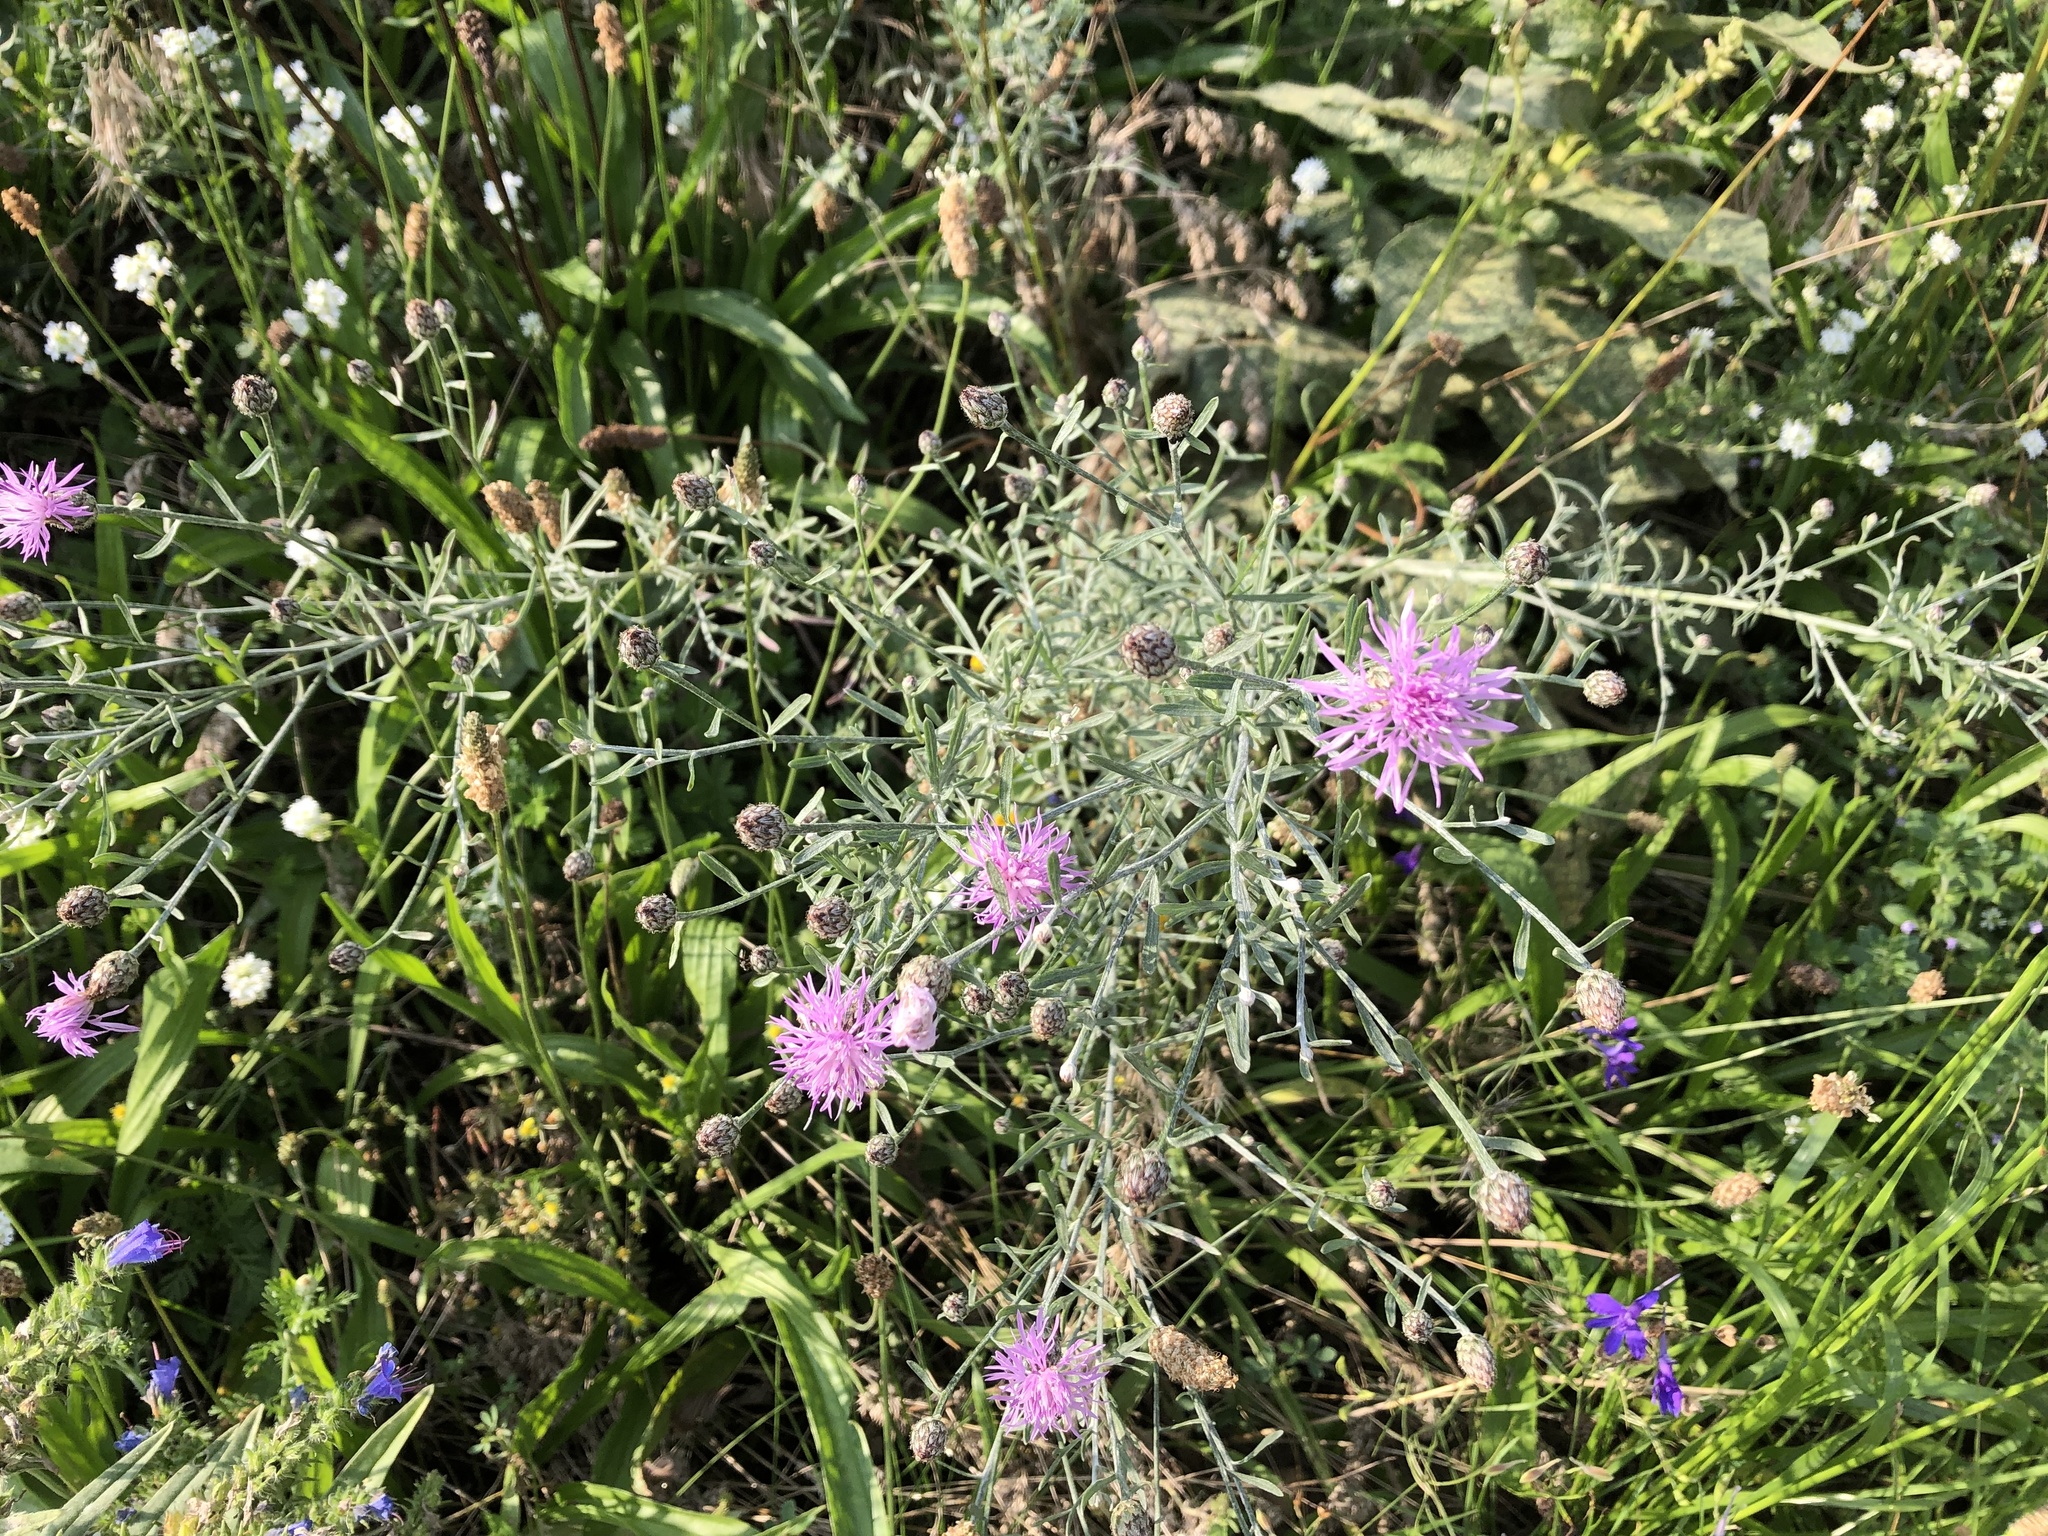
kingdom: Plantae
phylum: Tracheophyta
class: Magnoliopsida
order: Asterales
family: Asteraceae
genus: Centaurea
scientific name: Centaurea stoebe
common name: Spotted knapweed
